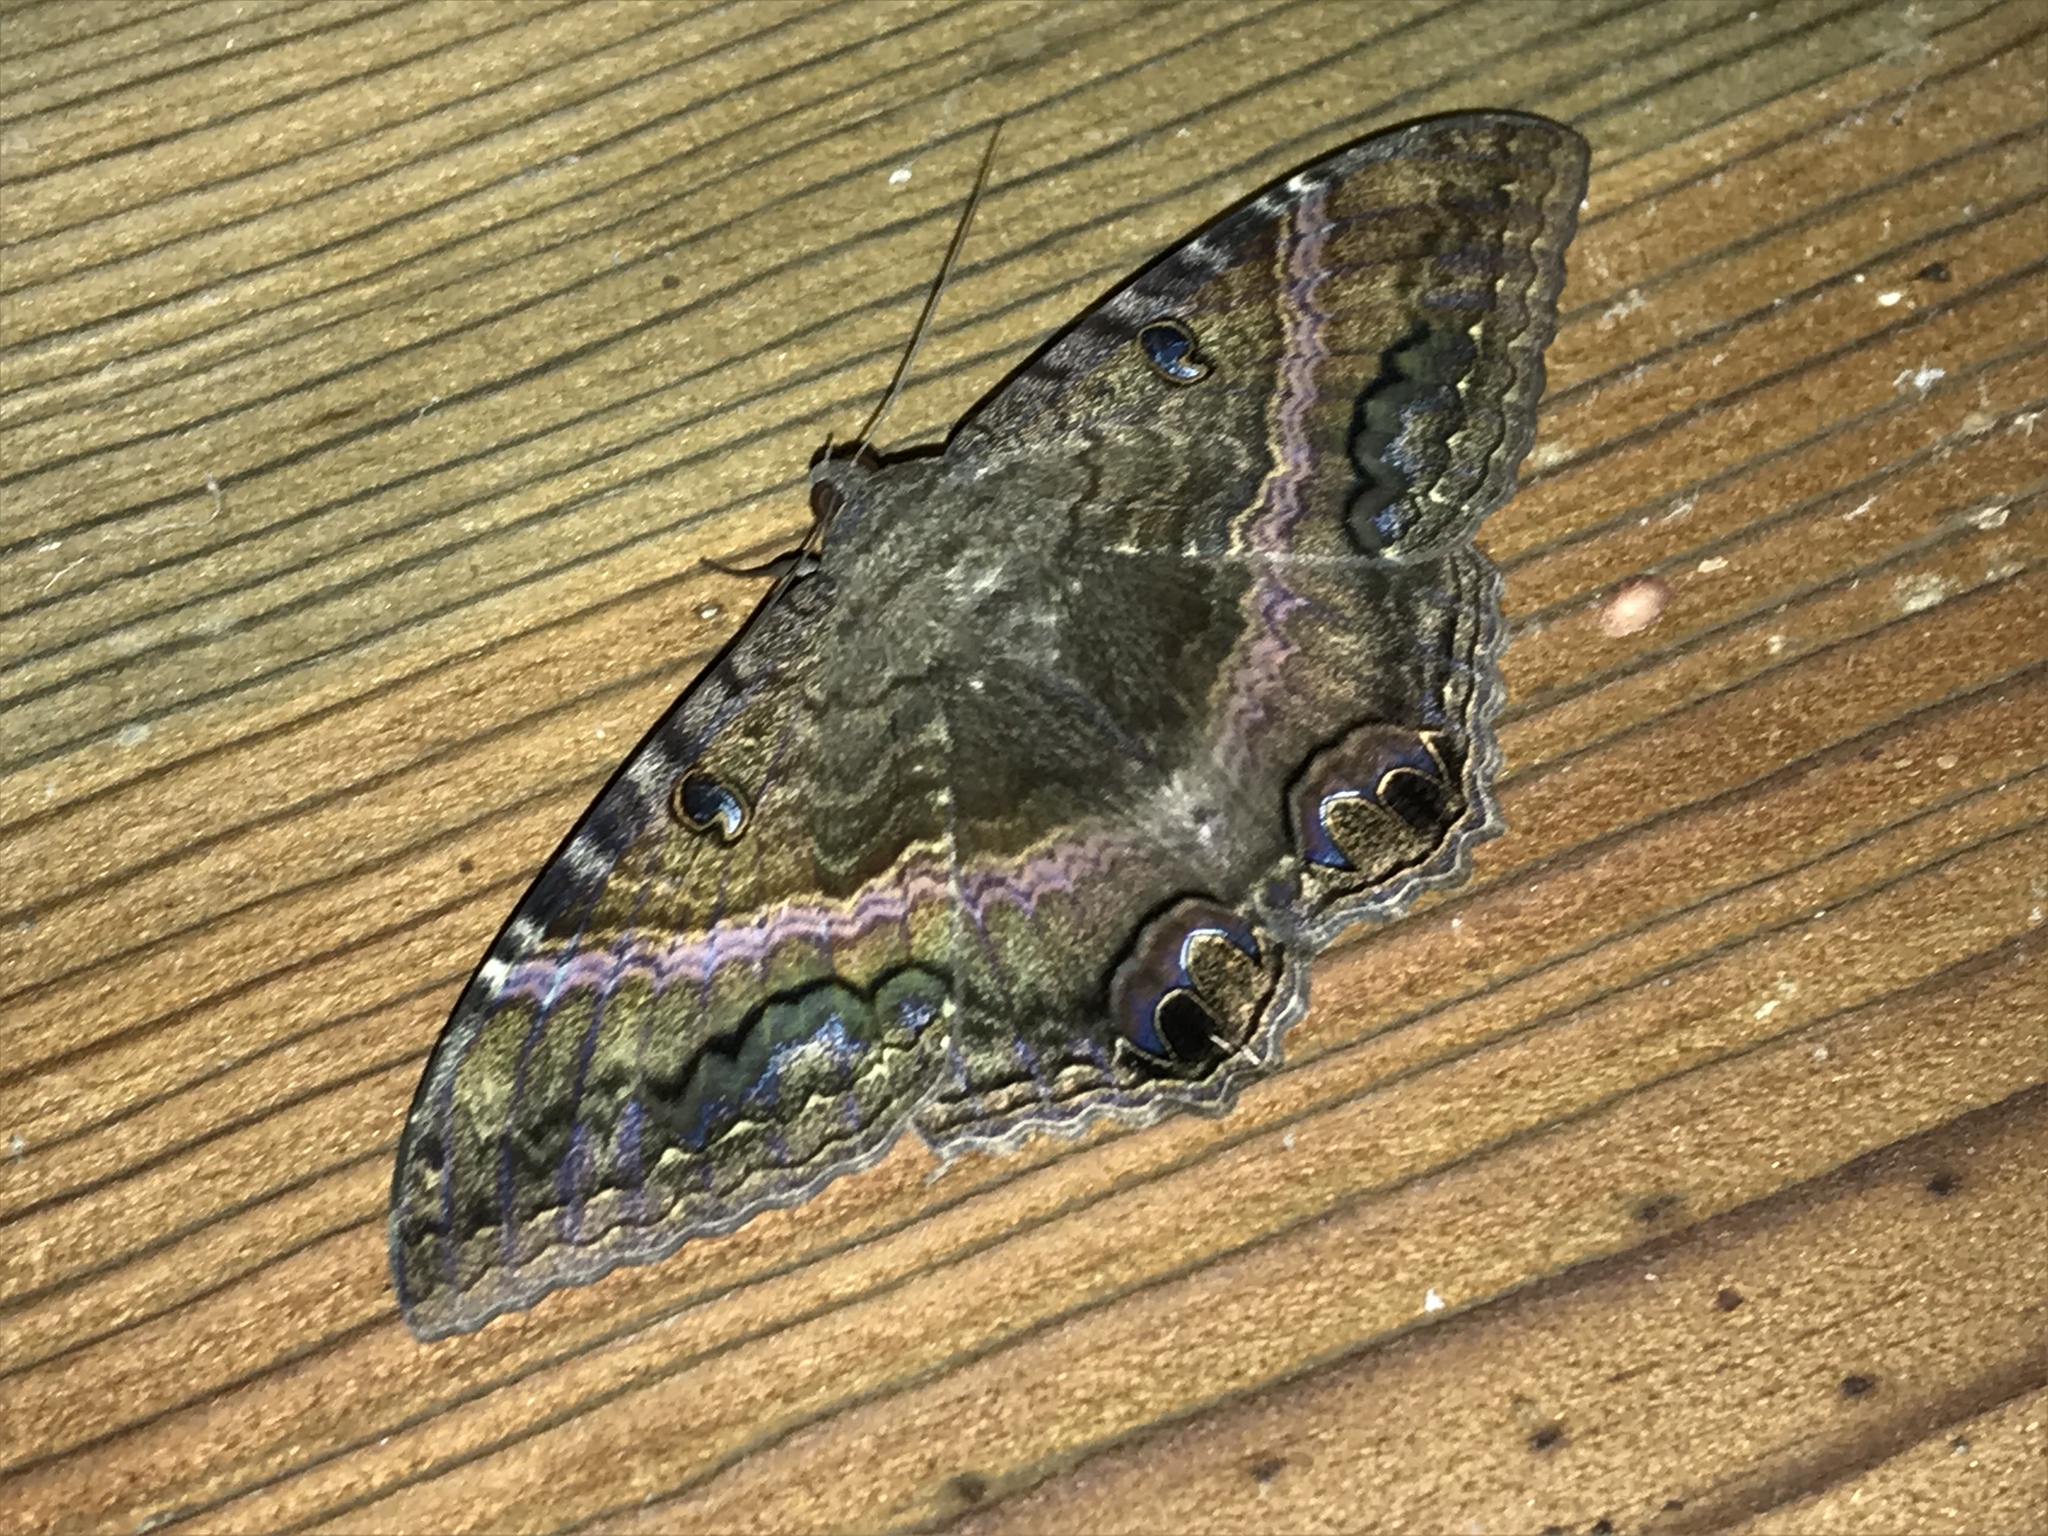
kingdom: Animalia
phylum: Arthropoda
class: Insecta
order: Lepidoptera
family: Erebidae
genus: Ascalapha
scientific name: Ascalapha odorata
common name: Black witch
